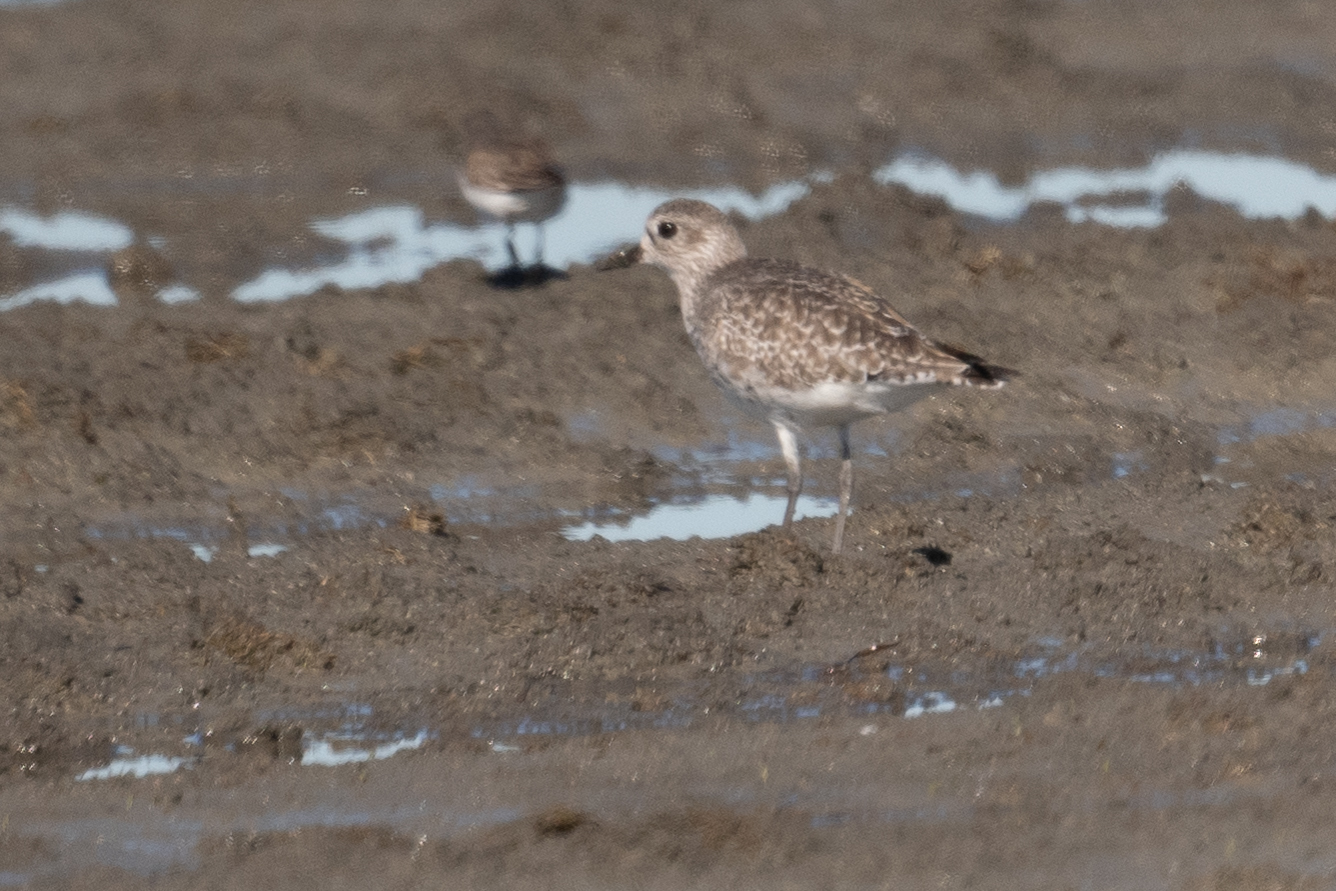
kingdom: Animalia
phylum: Chordata
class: Aves
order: Charadriiformes
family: Charadriidae
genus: Pluvialis
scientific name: Pluvialis squatarola
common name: Grey plover
